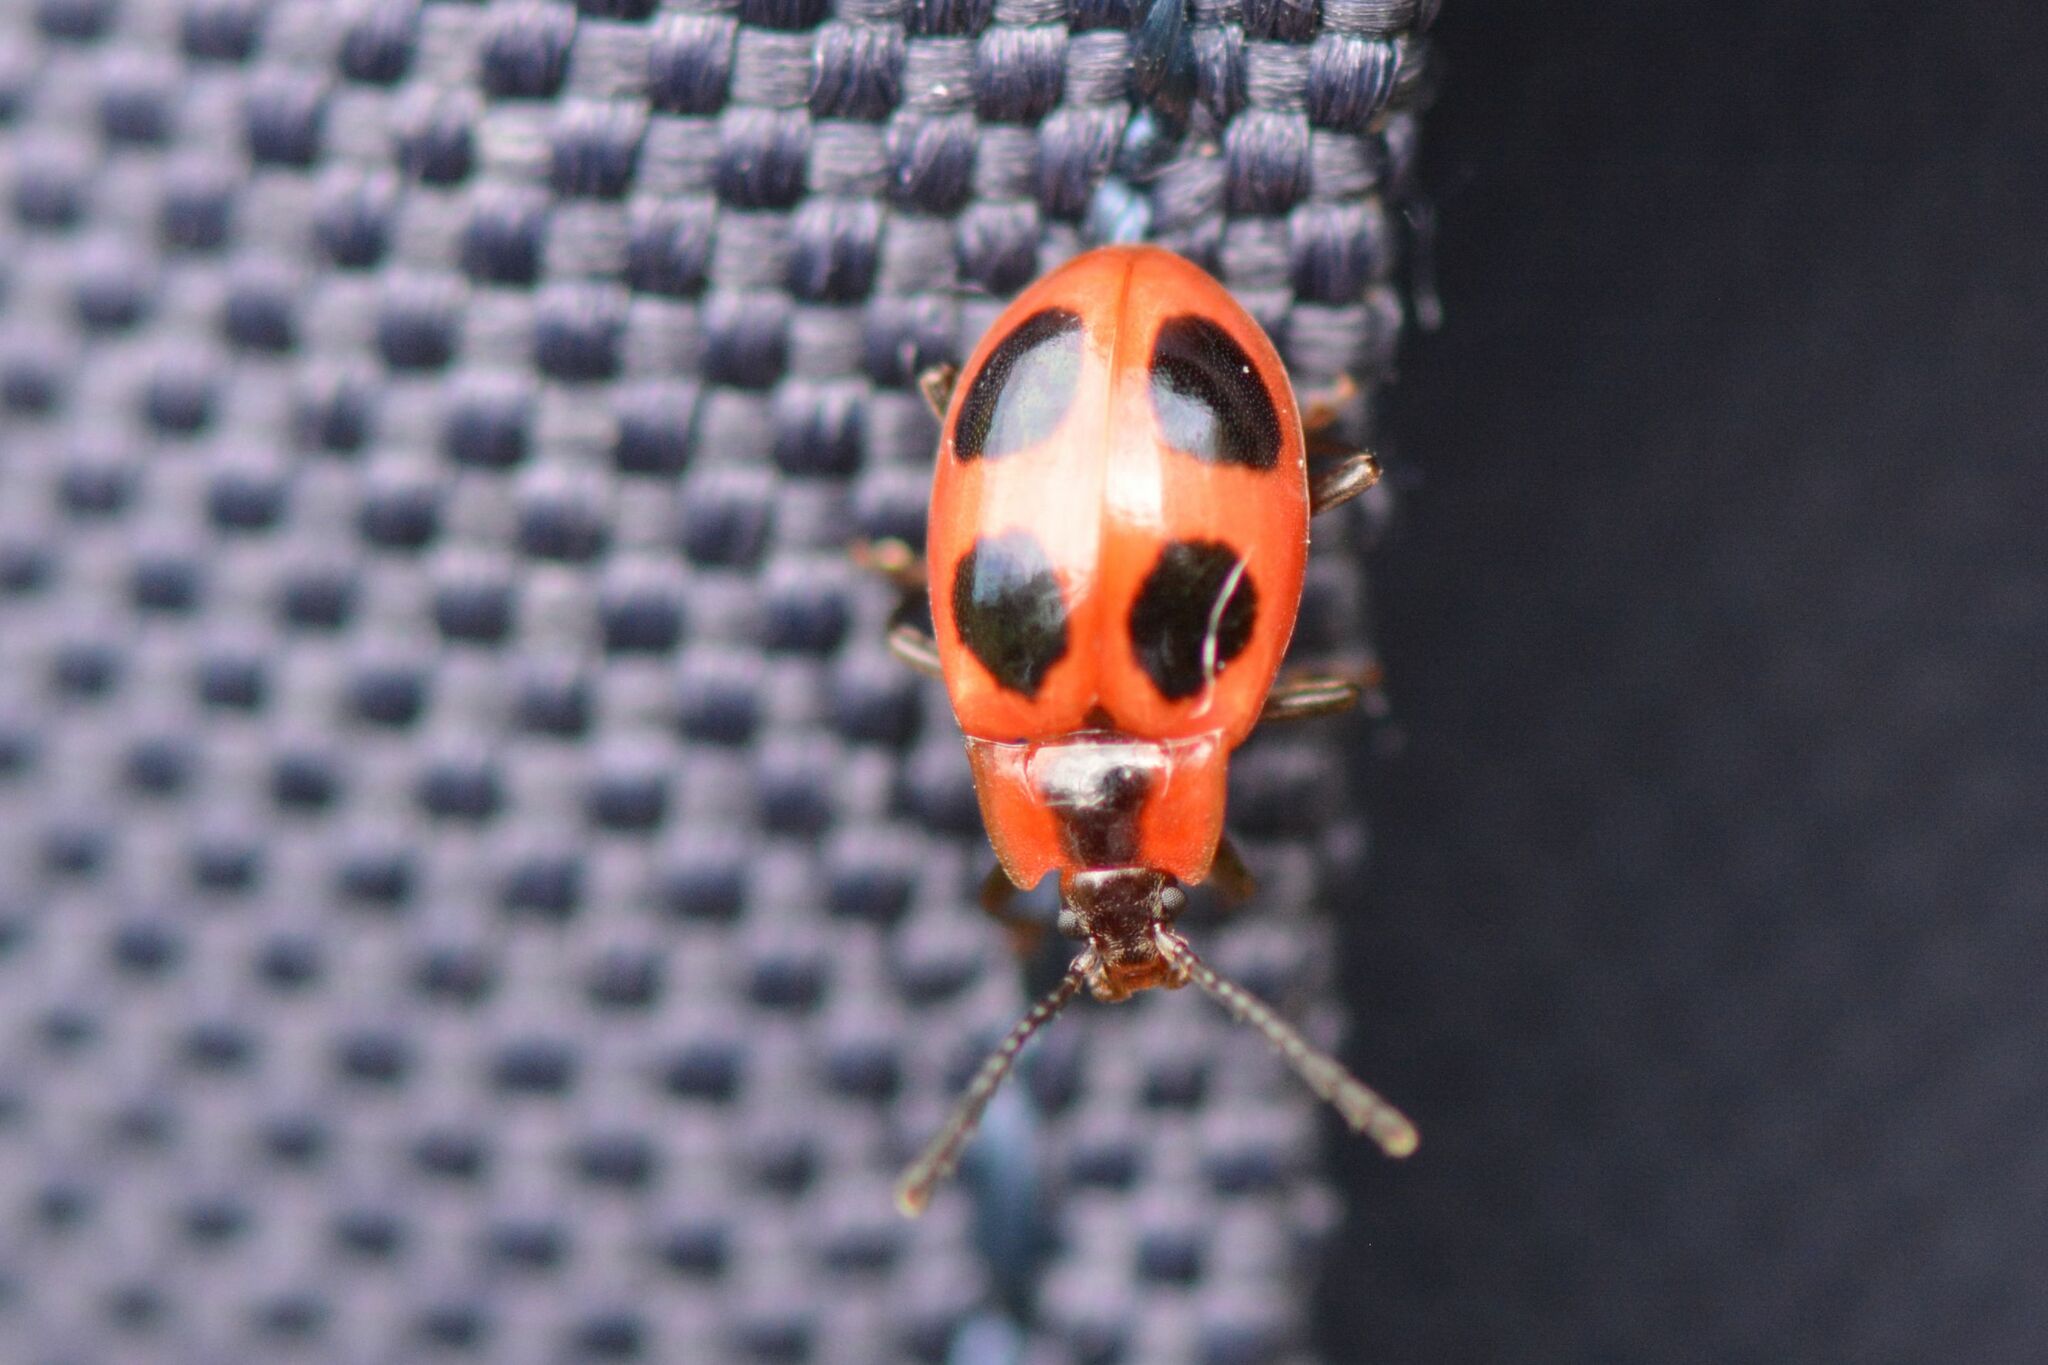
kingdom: Animalia
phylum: Arthropoda
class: Insecta
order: Coleoptera
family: Endomychidae
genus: Endomychus
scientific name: Endomychus coccineus
